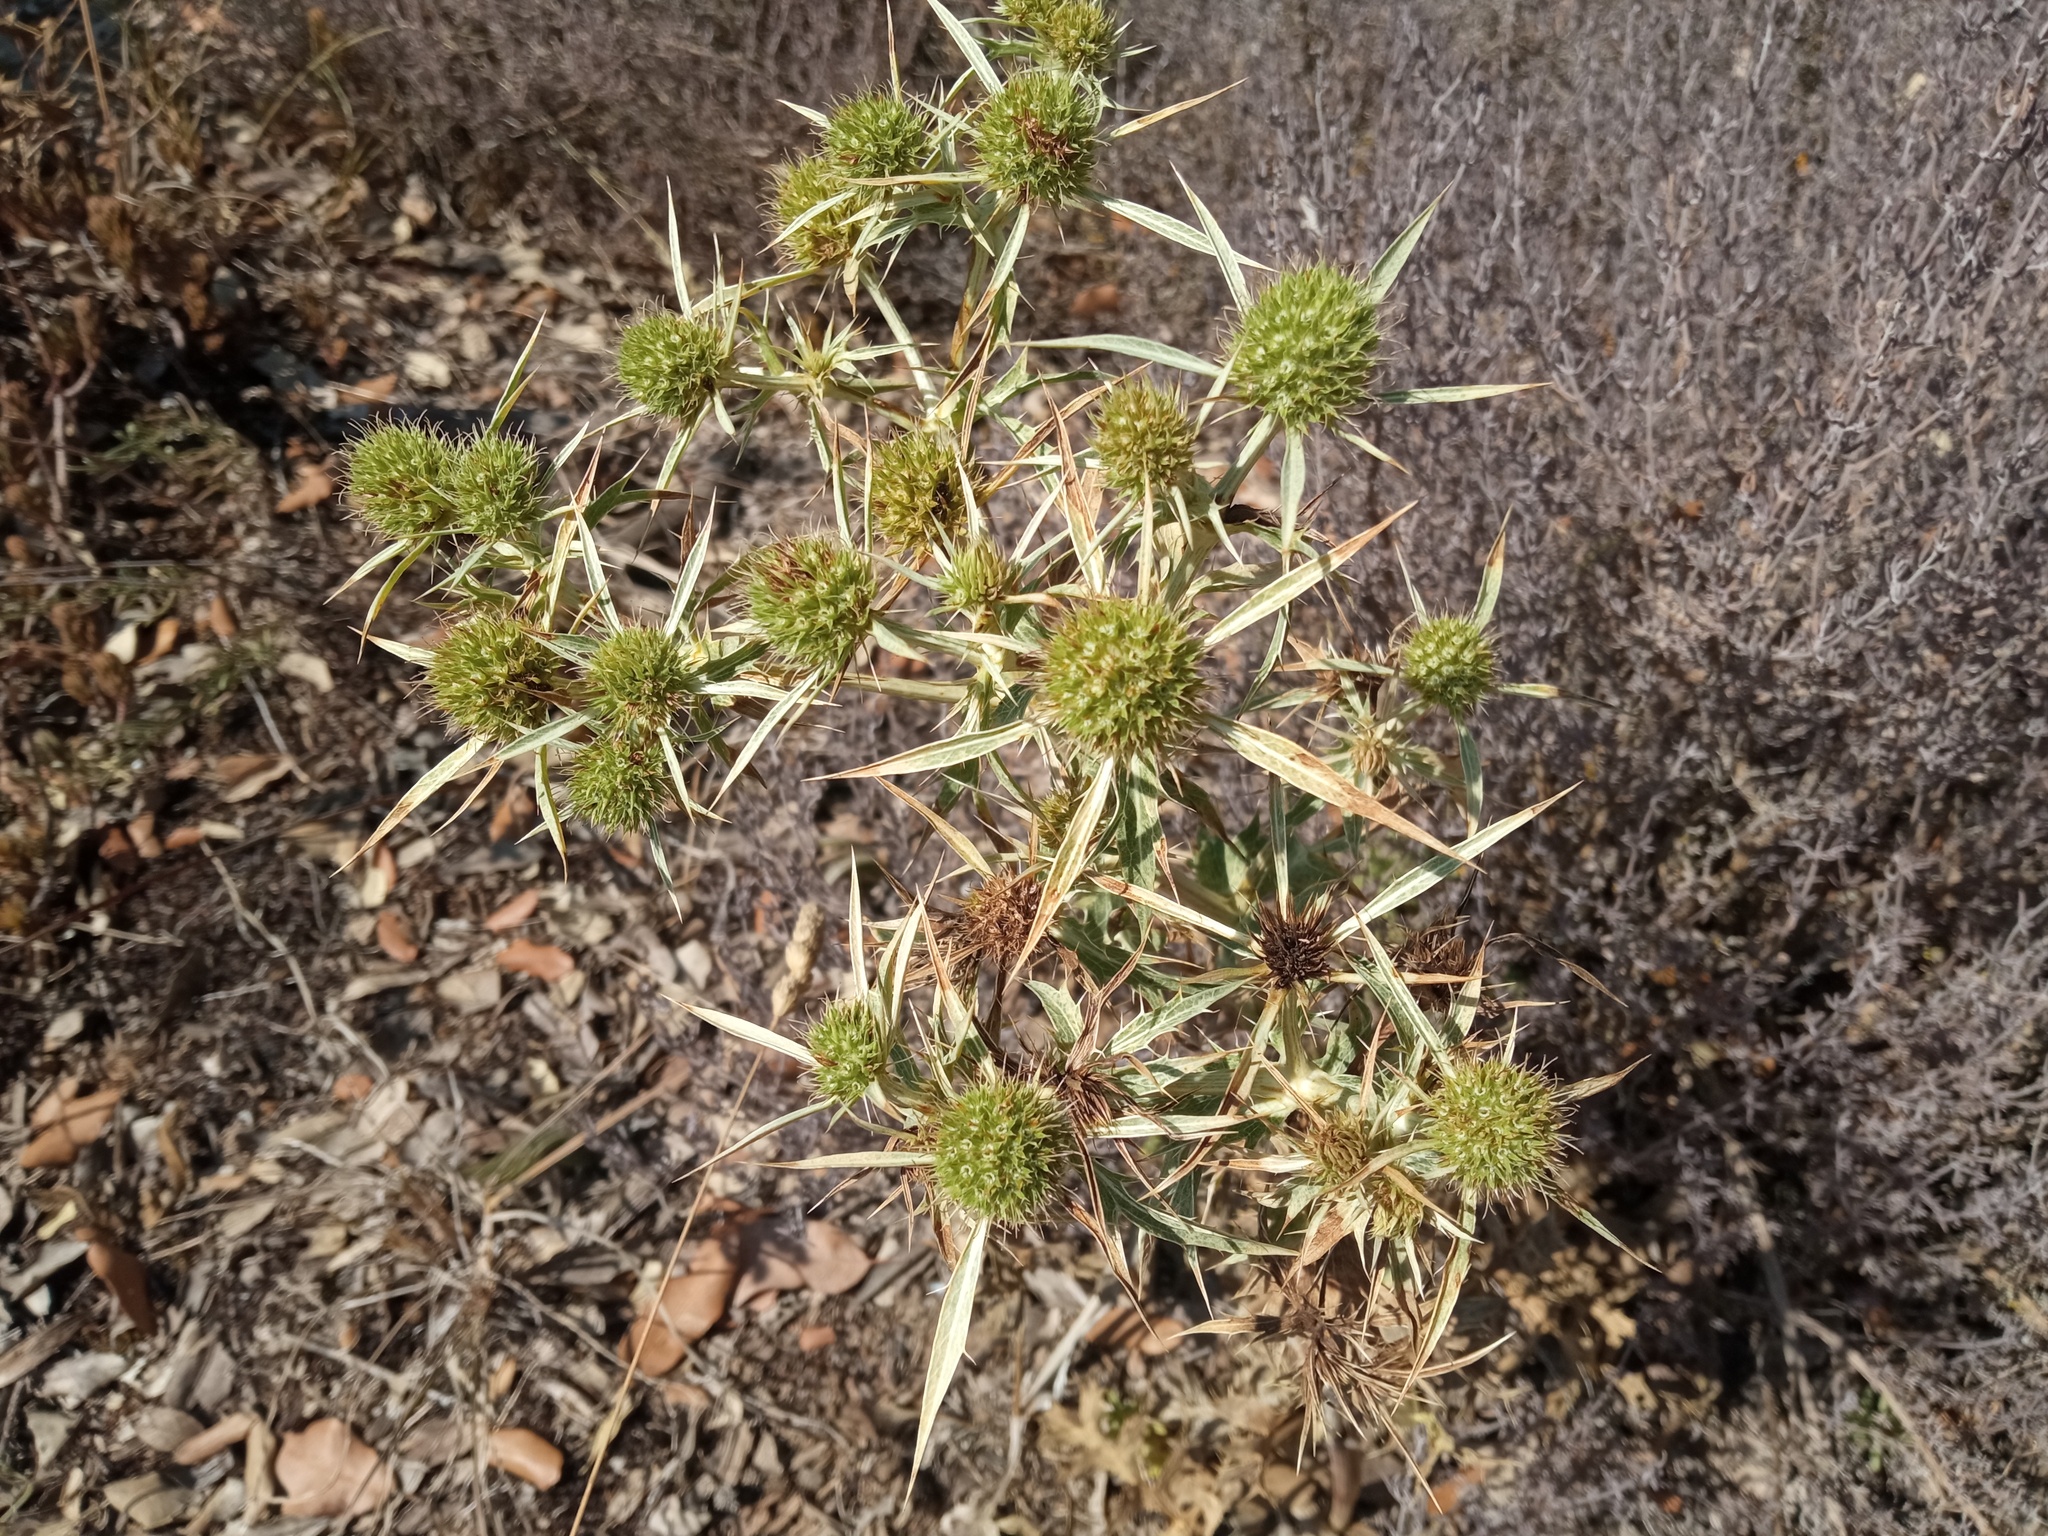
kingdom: Plantae
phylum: Tracheophyta
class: Magnoliopsida
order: Apiales
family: Apiaceae
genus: Eryngium
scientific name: Eryngium campestre
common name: Field eryngo
